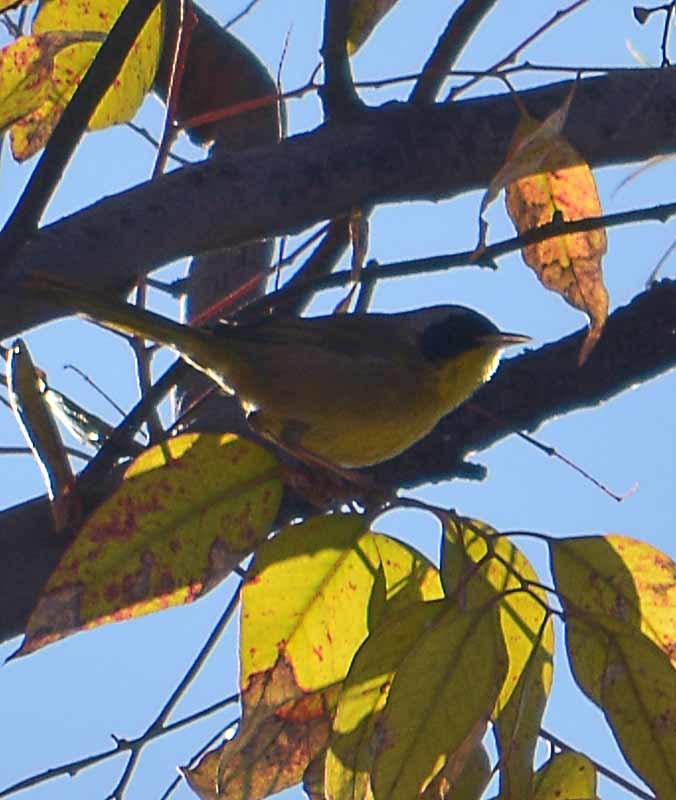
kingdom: Animalia
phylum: Chordata
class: Aves
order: Passeriformes
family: Parulidae
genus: Geothlypis
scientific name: Geothlypis trichas
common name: Common yellowthroat
